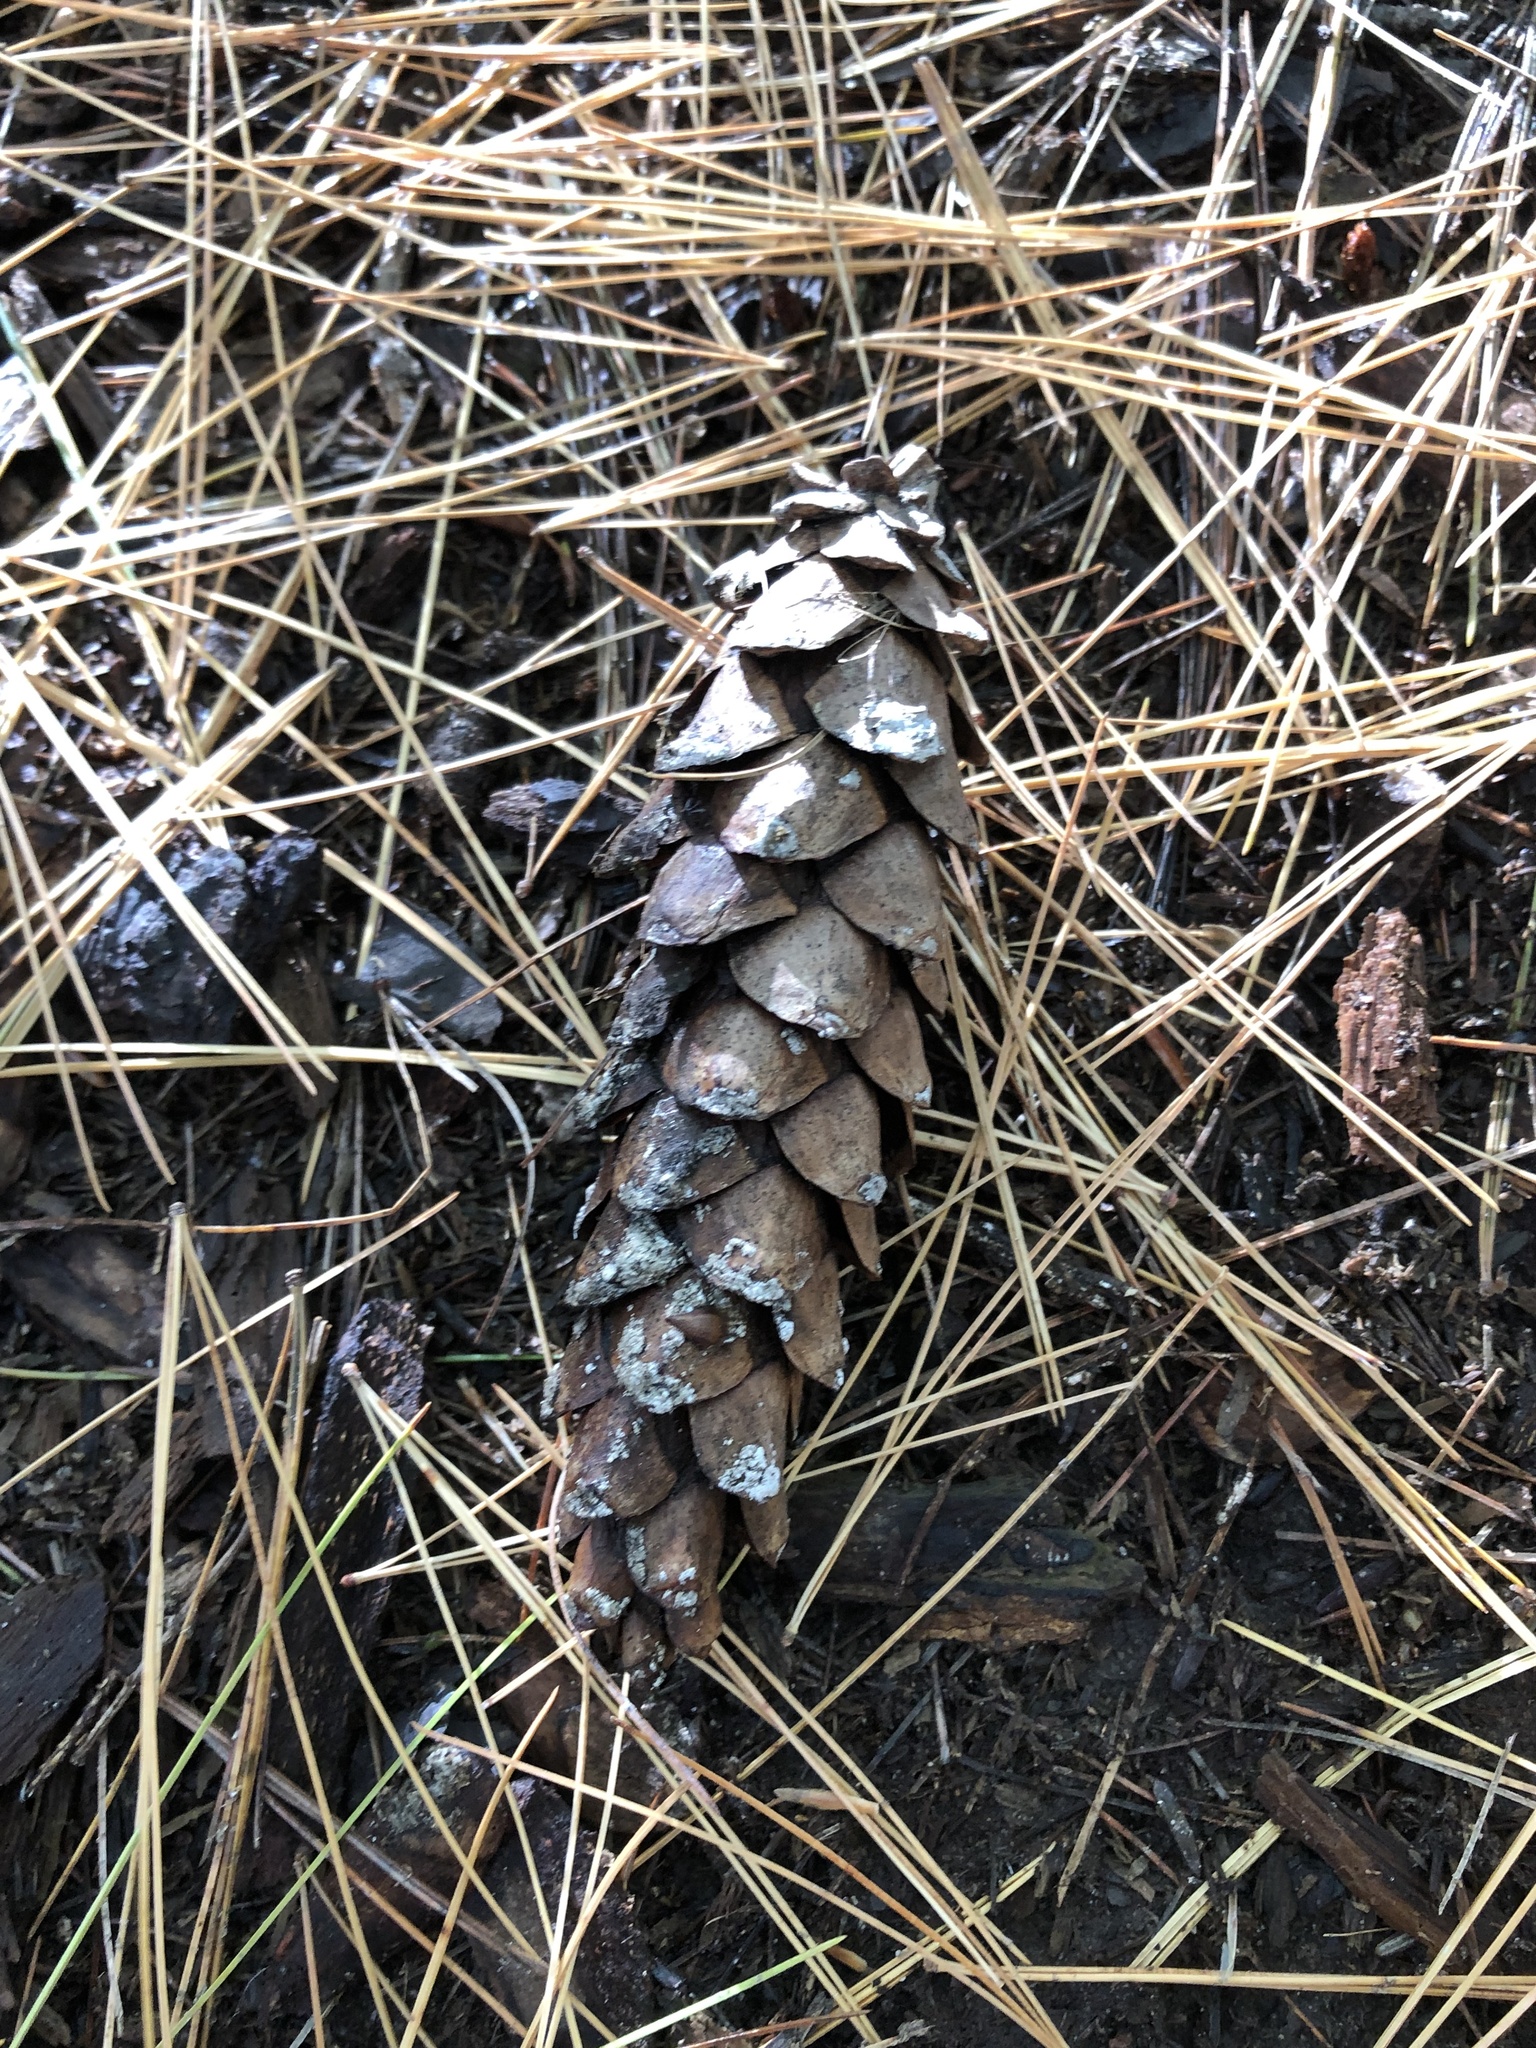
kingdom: Plantae
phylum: Tracheophyta
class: Pinopsida
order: Pinales
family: Pinaceae
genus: Pinus
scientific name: Pinus strobus
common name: Weymouth pine
